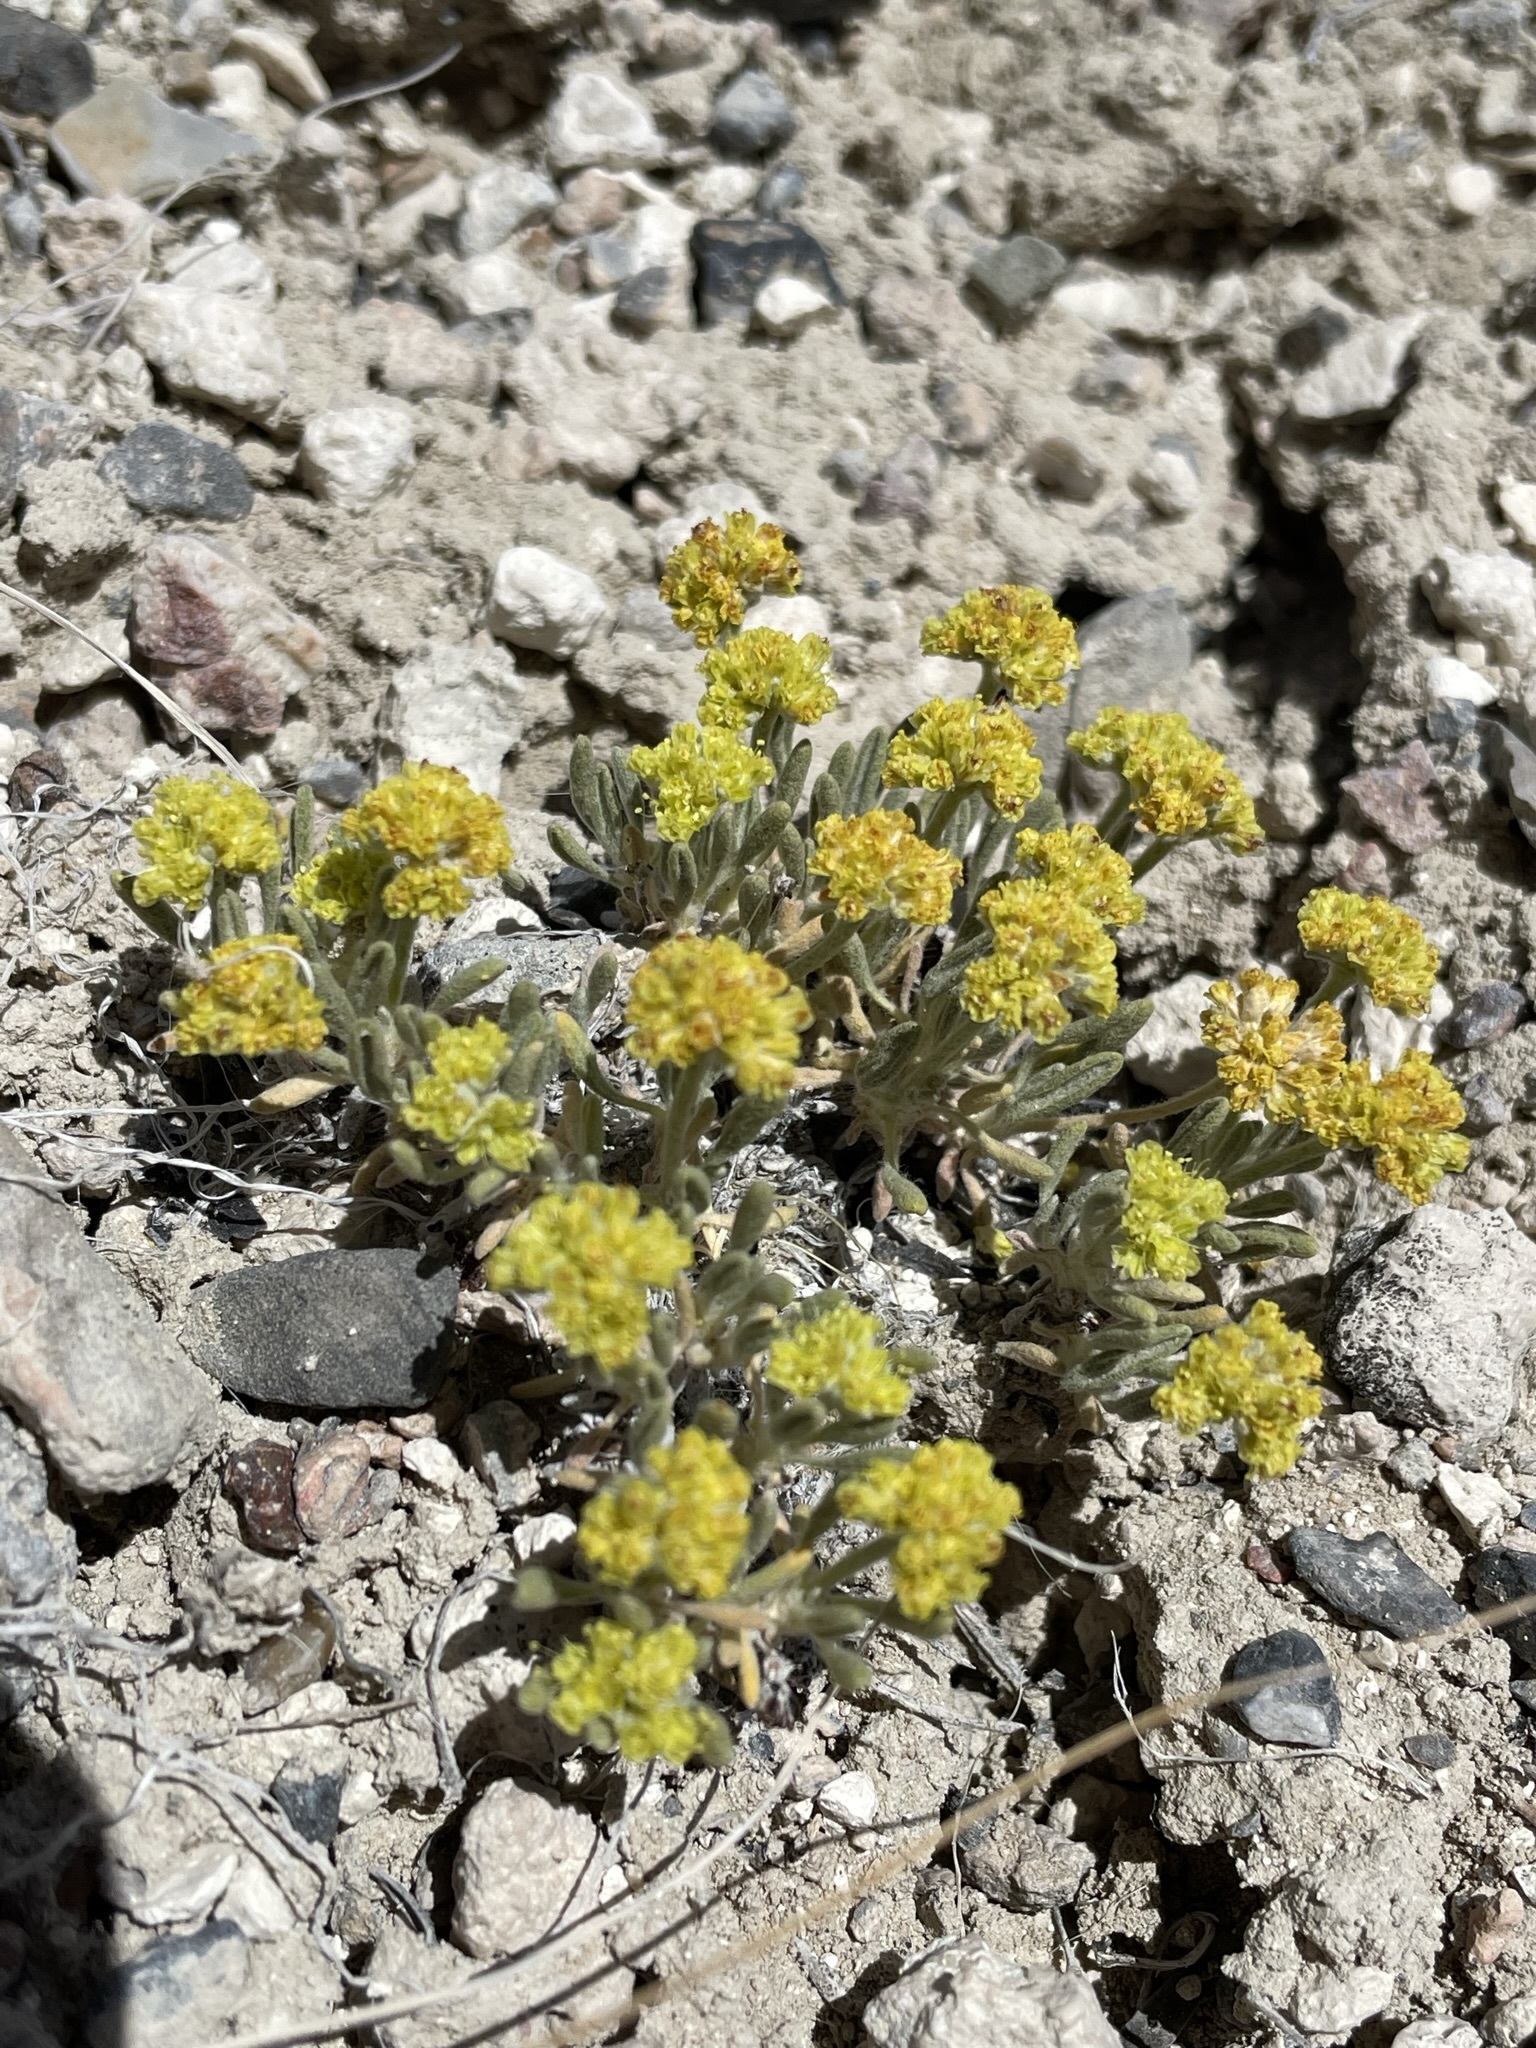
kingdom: Plantae
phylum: Tracheophyta
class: Magnoliopsida
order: Caryophyllales
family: Polygonaceae
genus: Eriogonum
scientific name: Eriogonum shockleyi
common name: Shockley's wild buckwheat
